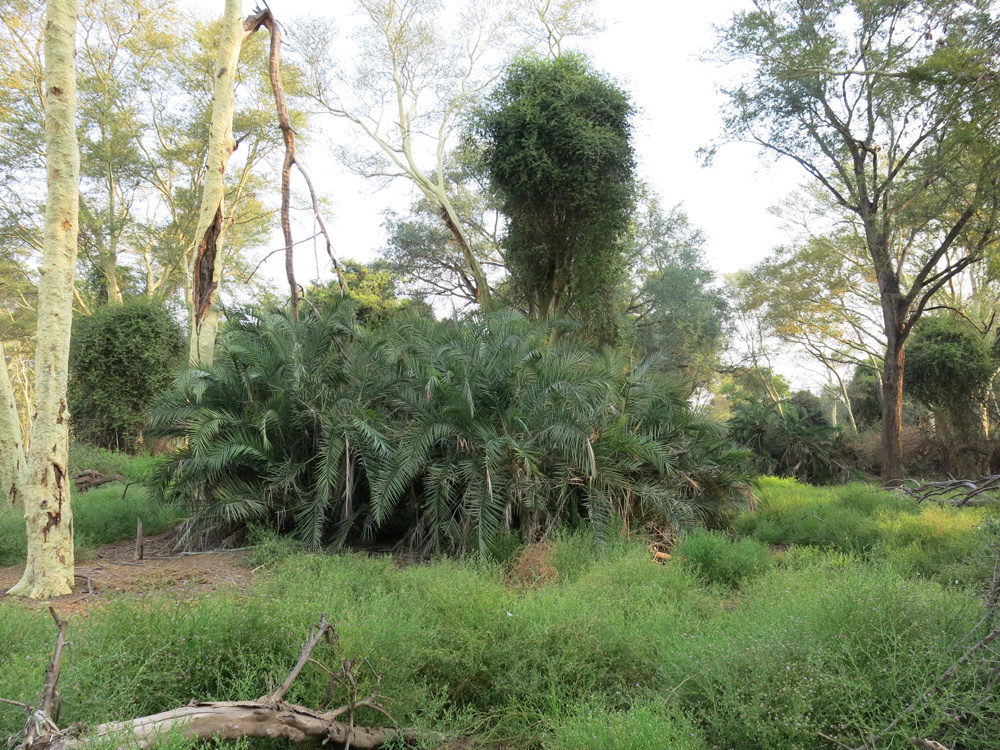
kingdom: Plantae
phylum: Tracheophyta
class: Liliopsida
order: Arecales
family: Arecaceae
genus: Phoenix
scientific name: Phoenix reclinata
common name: Senegal date palm
